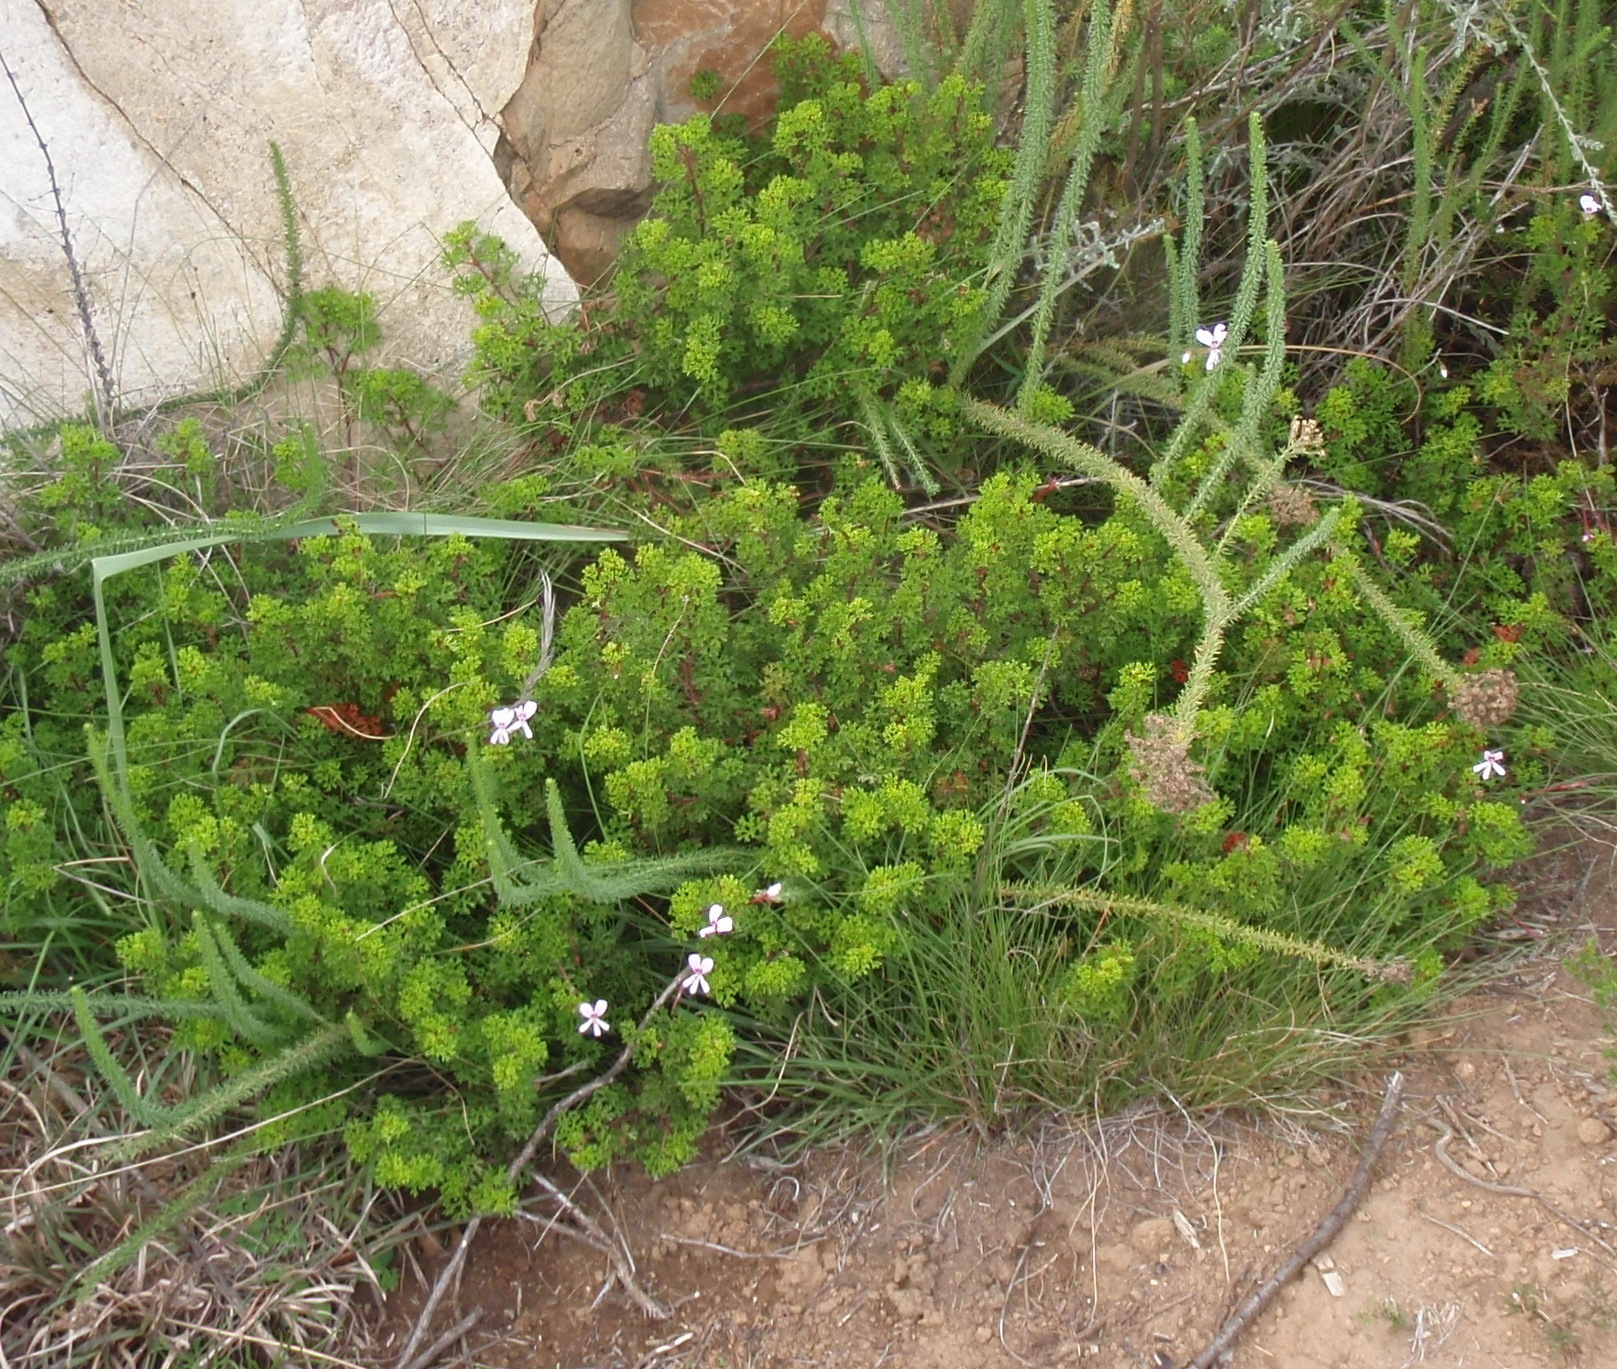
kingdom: Plantae
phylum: Tracheophyta
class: Magnoliopsida
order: Geraniales
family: Geraniaceae
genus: Pelargonium
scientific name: Pelargonium fruticosum
